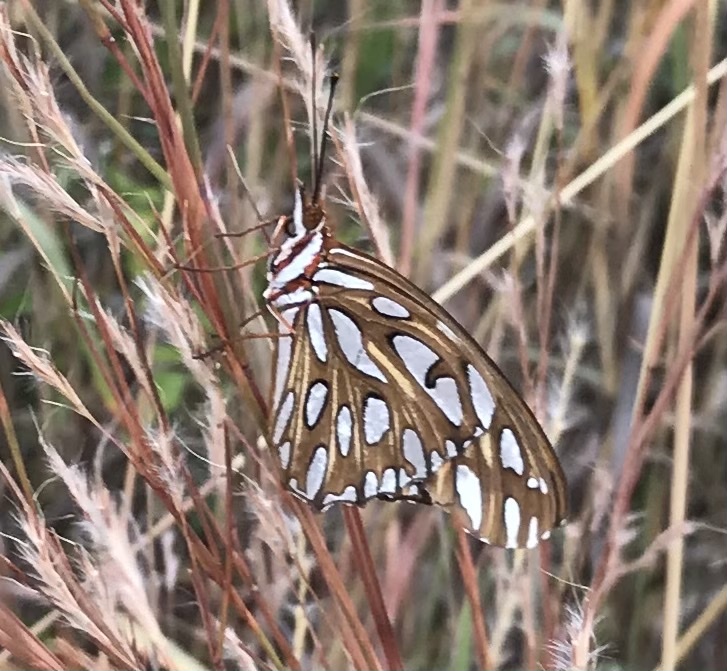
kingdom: Animalia
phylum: Arthropoda
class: Insecta
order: Lepidoptera
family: Nymphalidae
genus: Dione
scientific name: Dione vanillae
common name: Gulf fritillary
